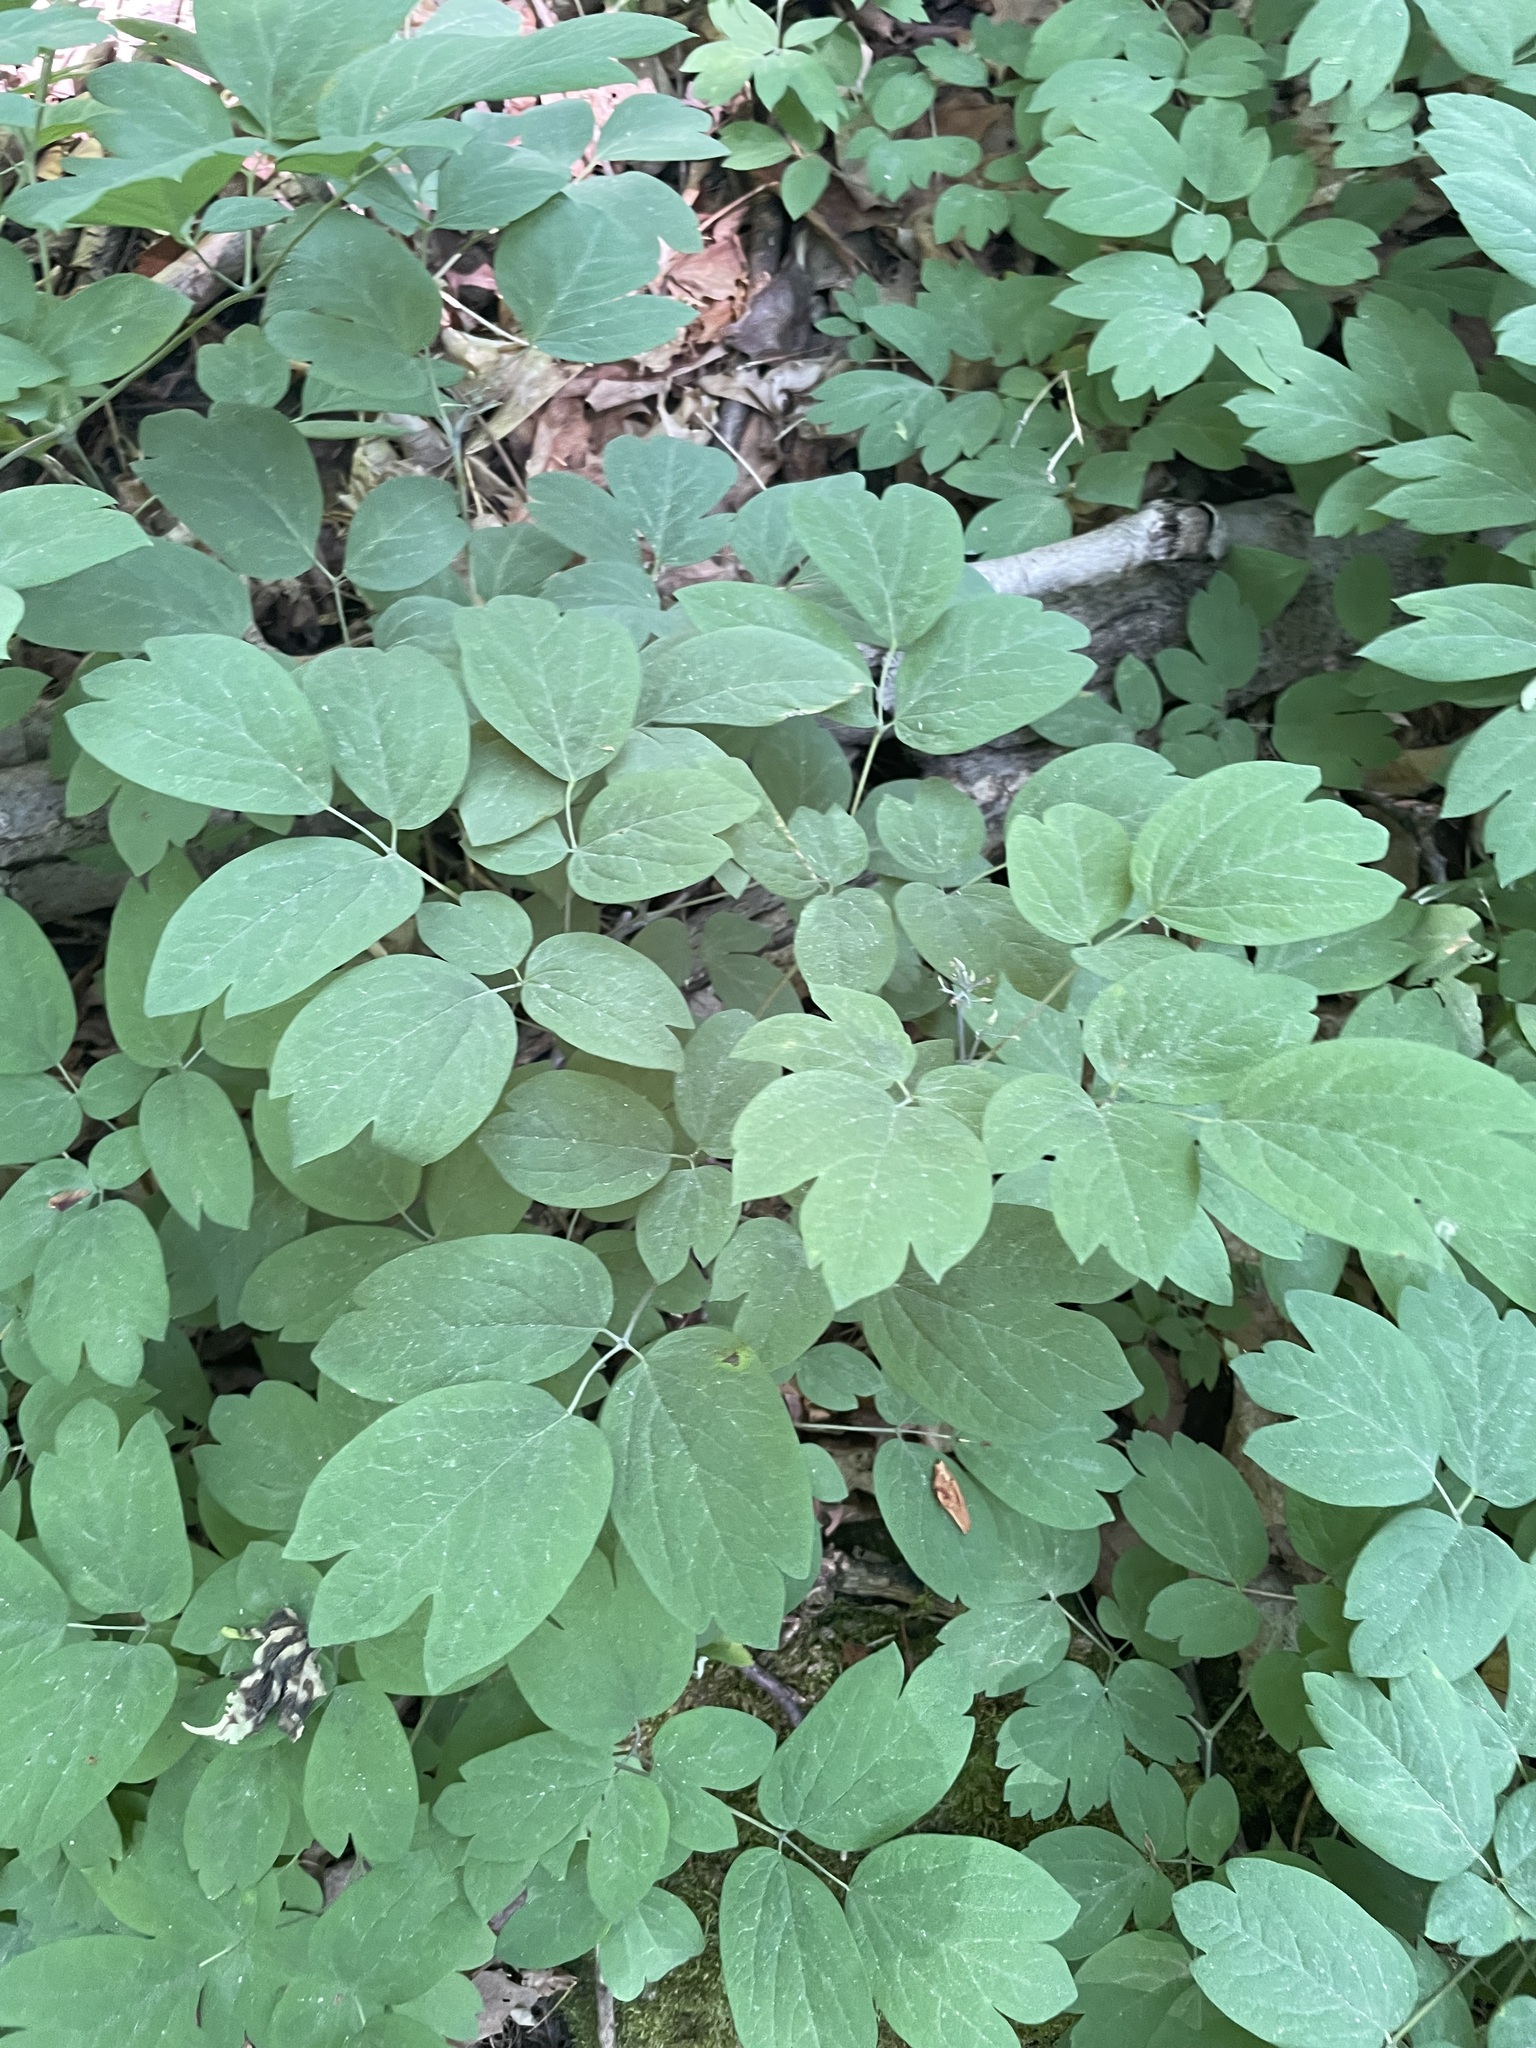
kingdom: Plantae
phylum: Tracheophyta
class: Magnoliopsida
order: Ranunculales
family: Berberidaceae
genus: Caulophyllum
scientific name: Caulophyllum giganteum
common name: Blue cohosh
